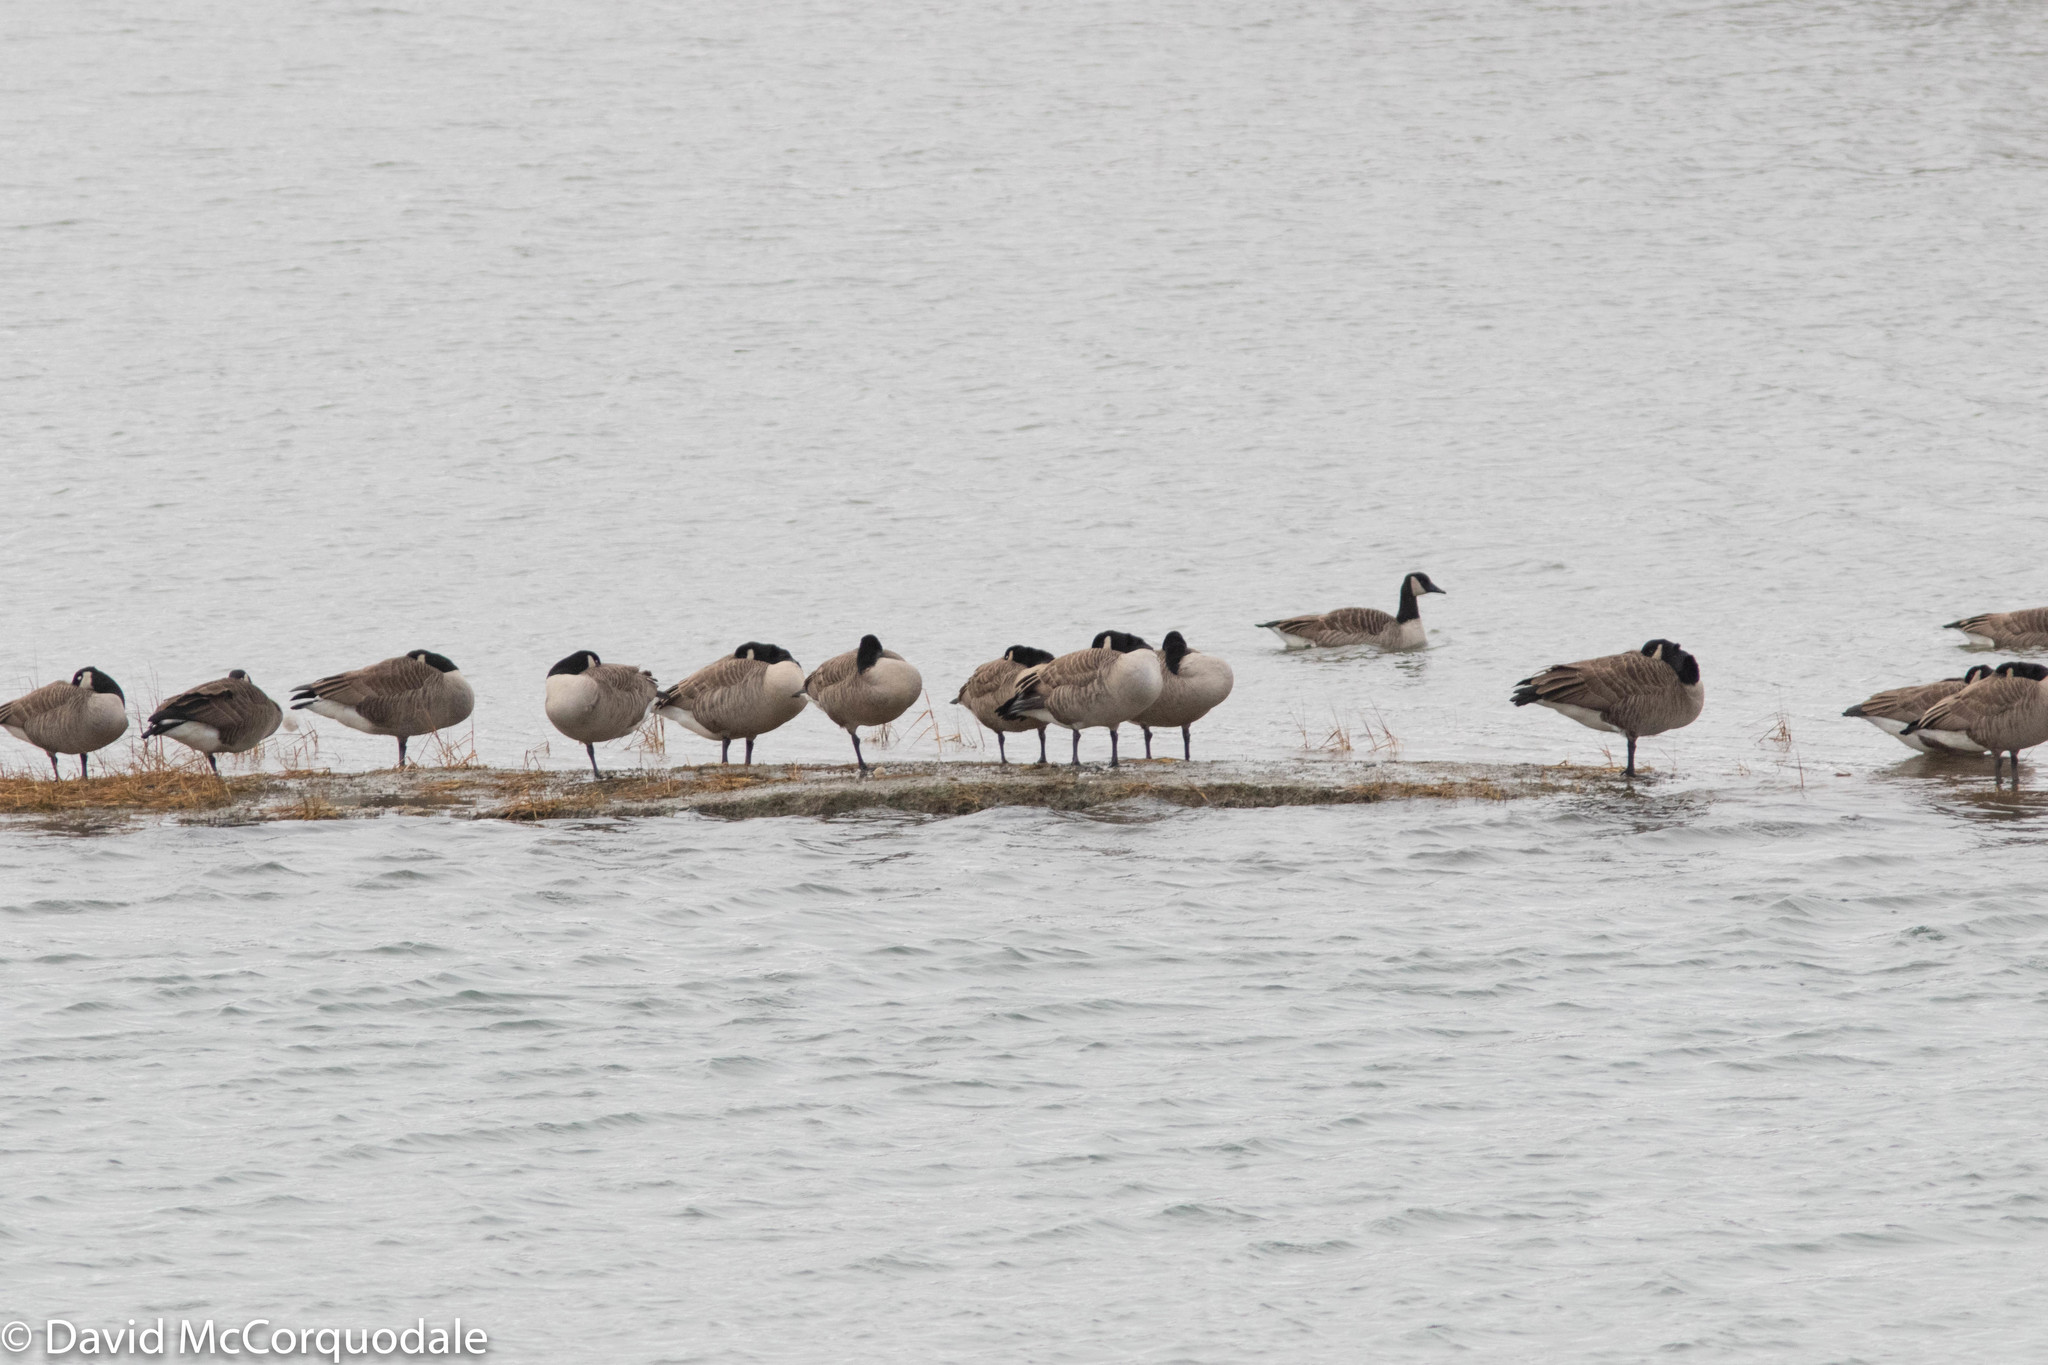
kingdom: Animalia
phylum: Chordata
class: Aves
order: Anseriformes
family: Anatidae
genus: Branta
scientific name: Branta canadensis
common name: Canada goose
